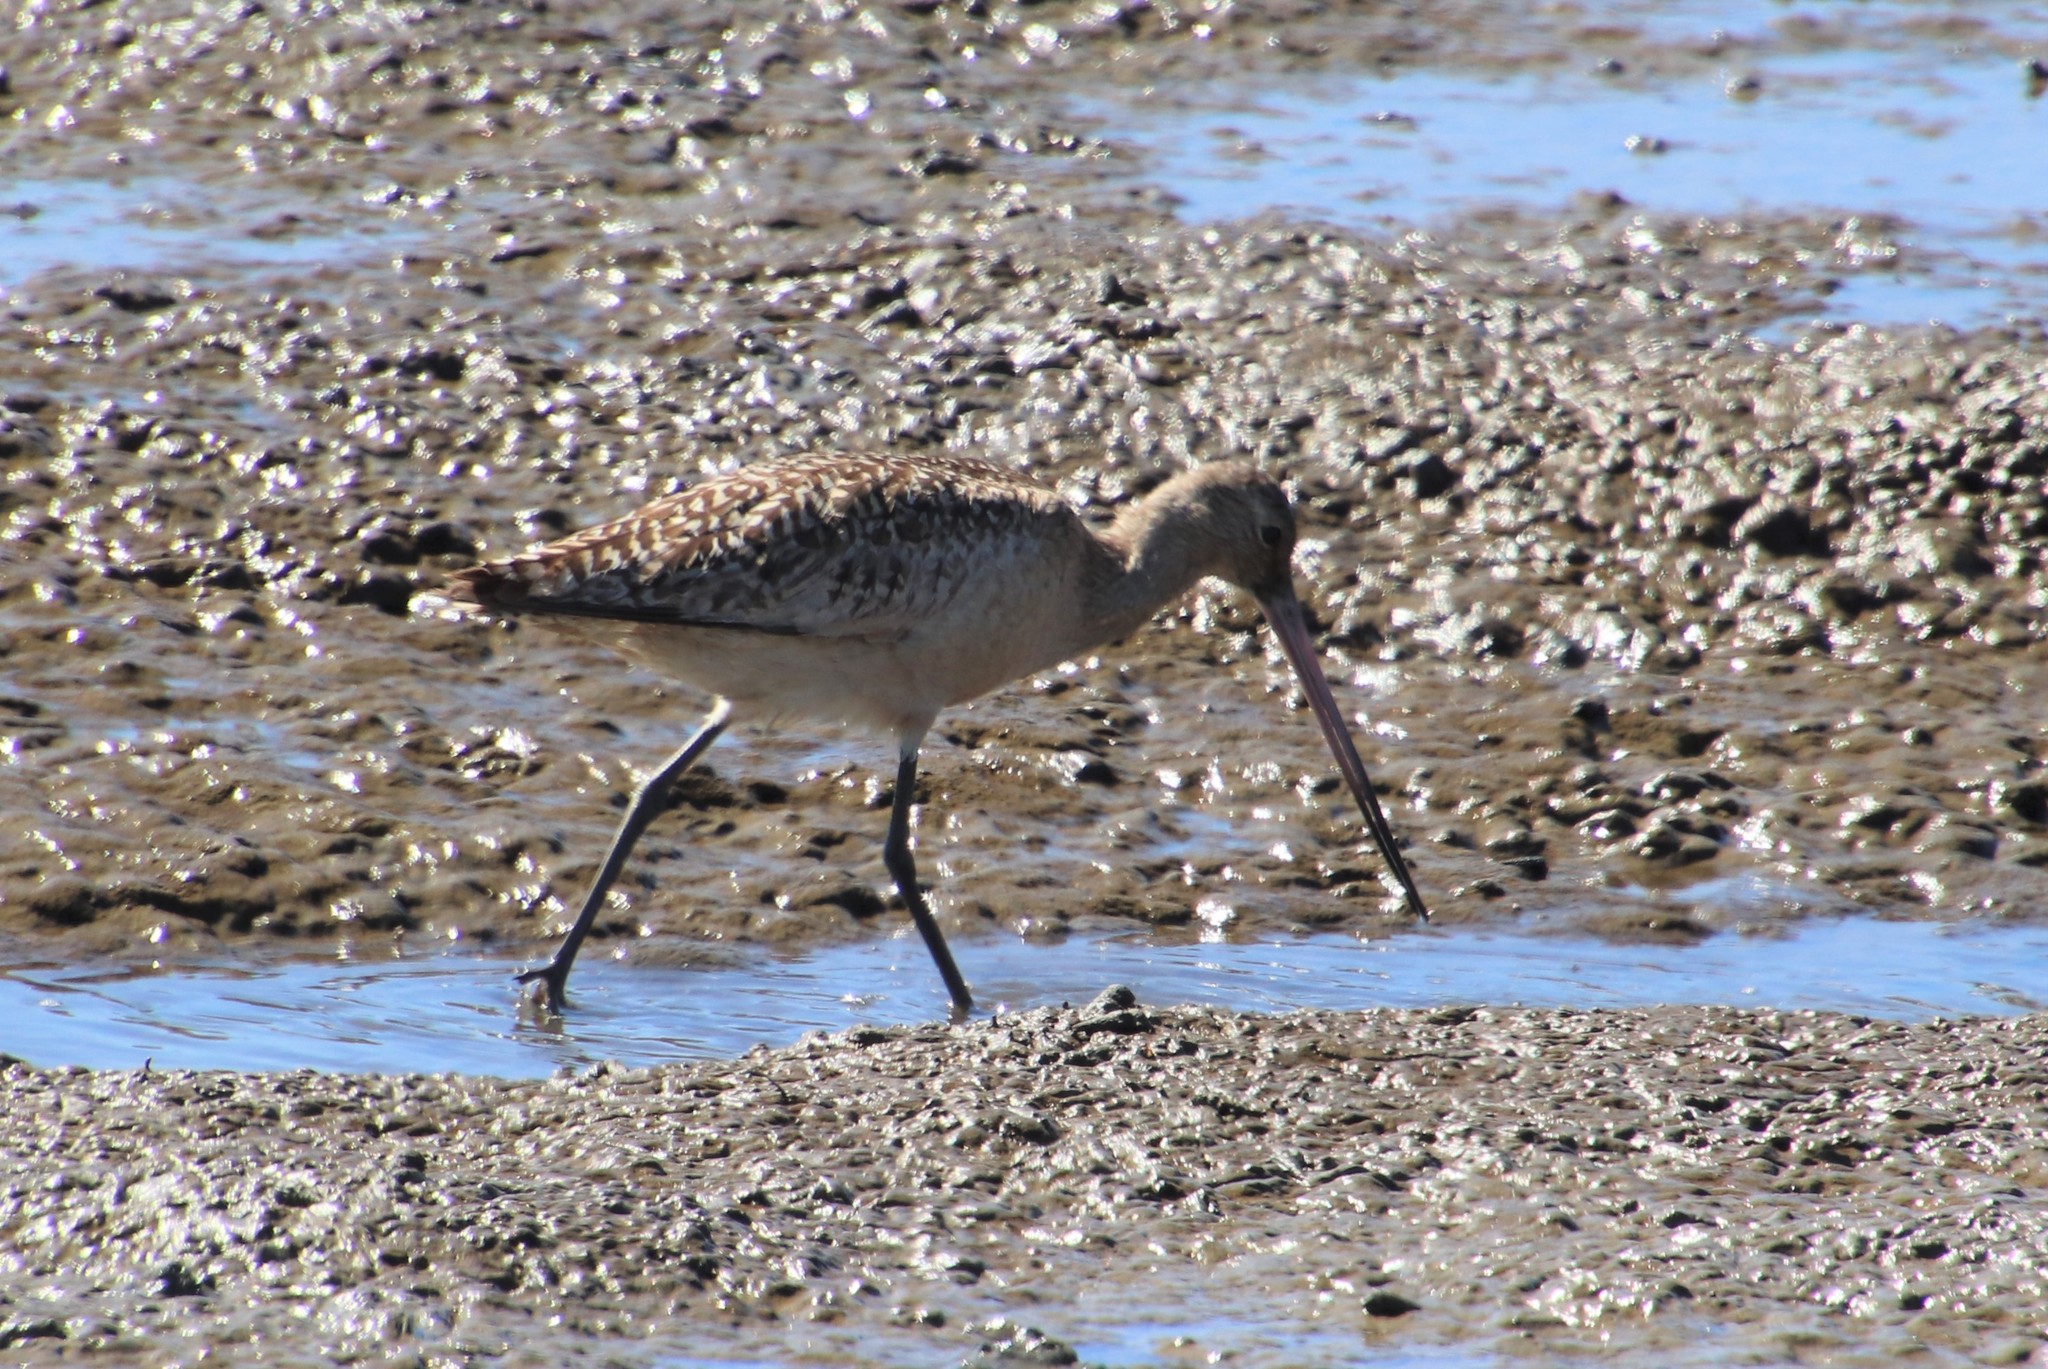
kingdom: Animalia
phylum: Chordata
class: Aves
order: Charadriiformes
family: Scolopacidae
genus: Limosa
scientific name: Limosa fedoa
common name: Marbled godwit
